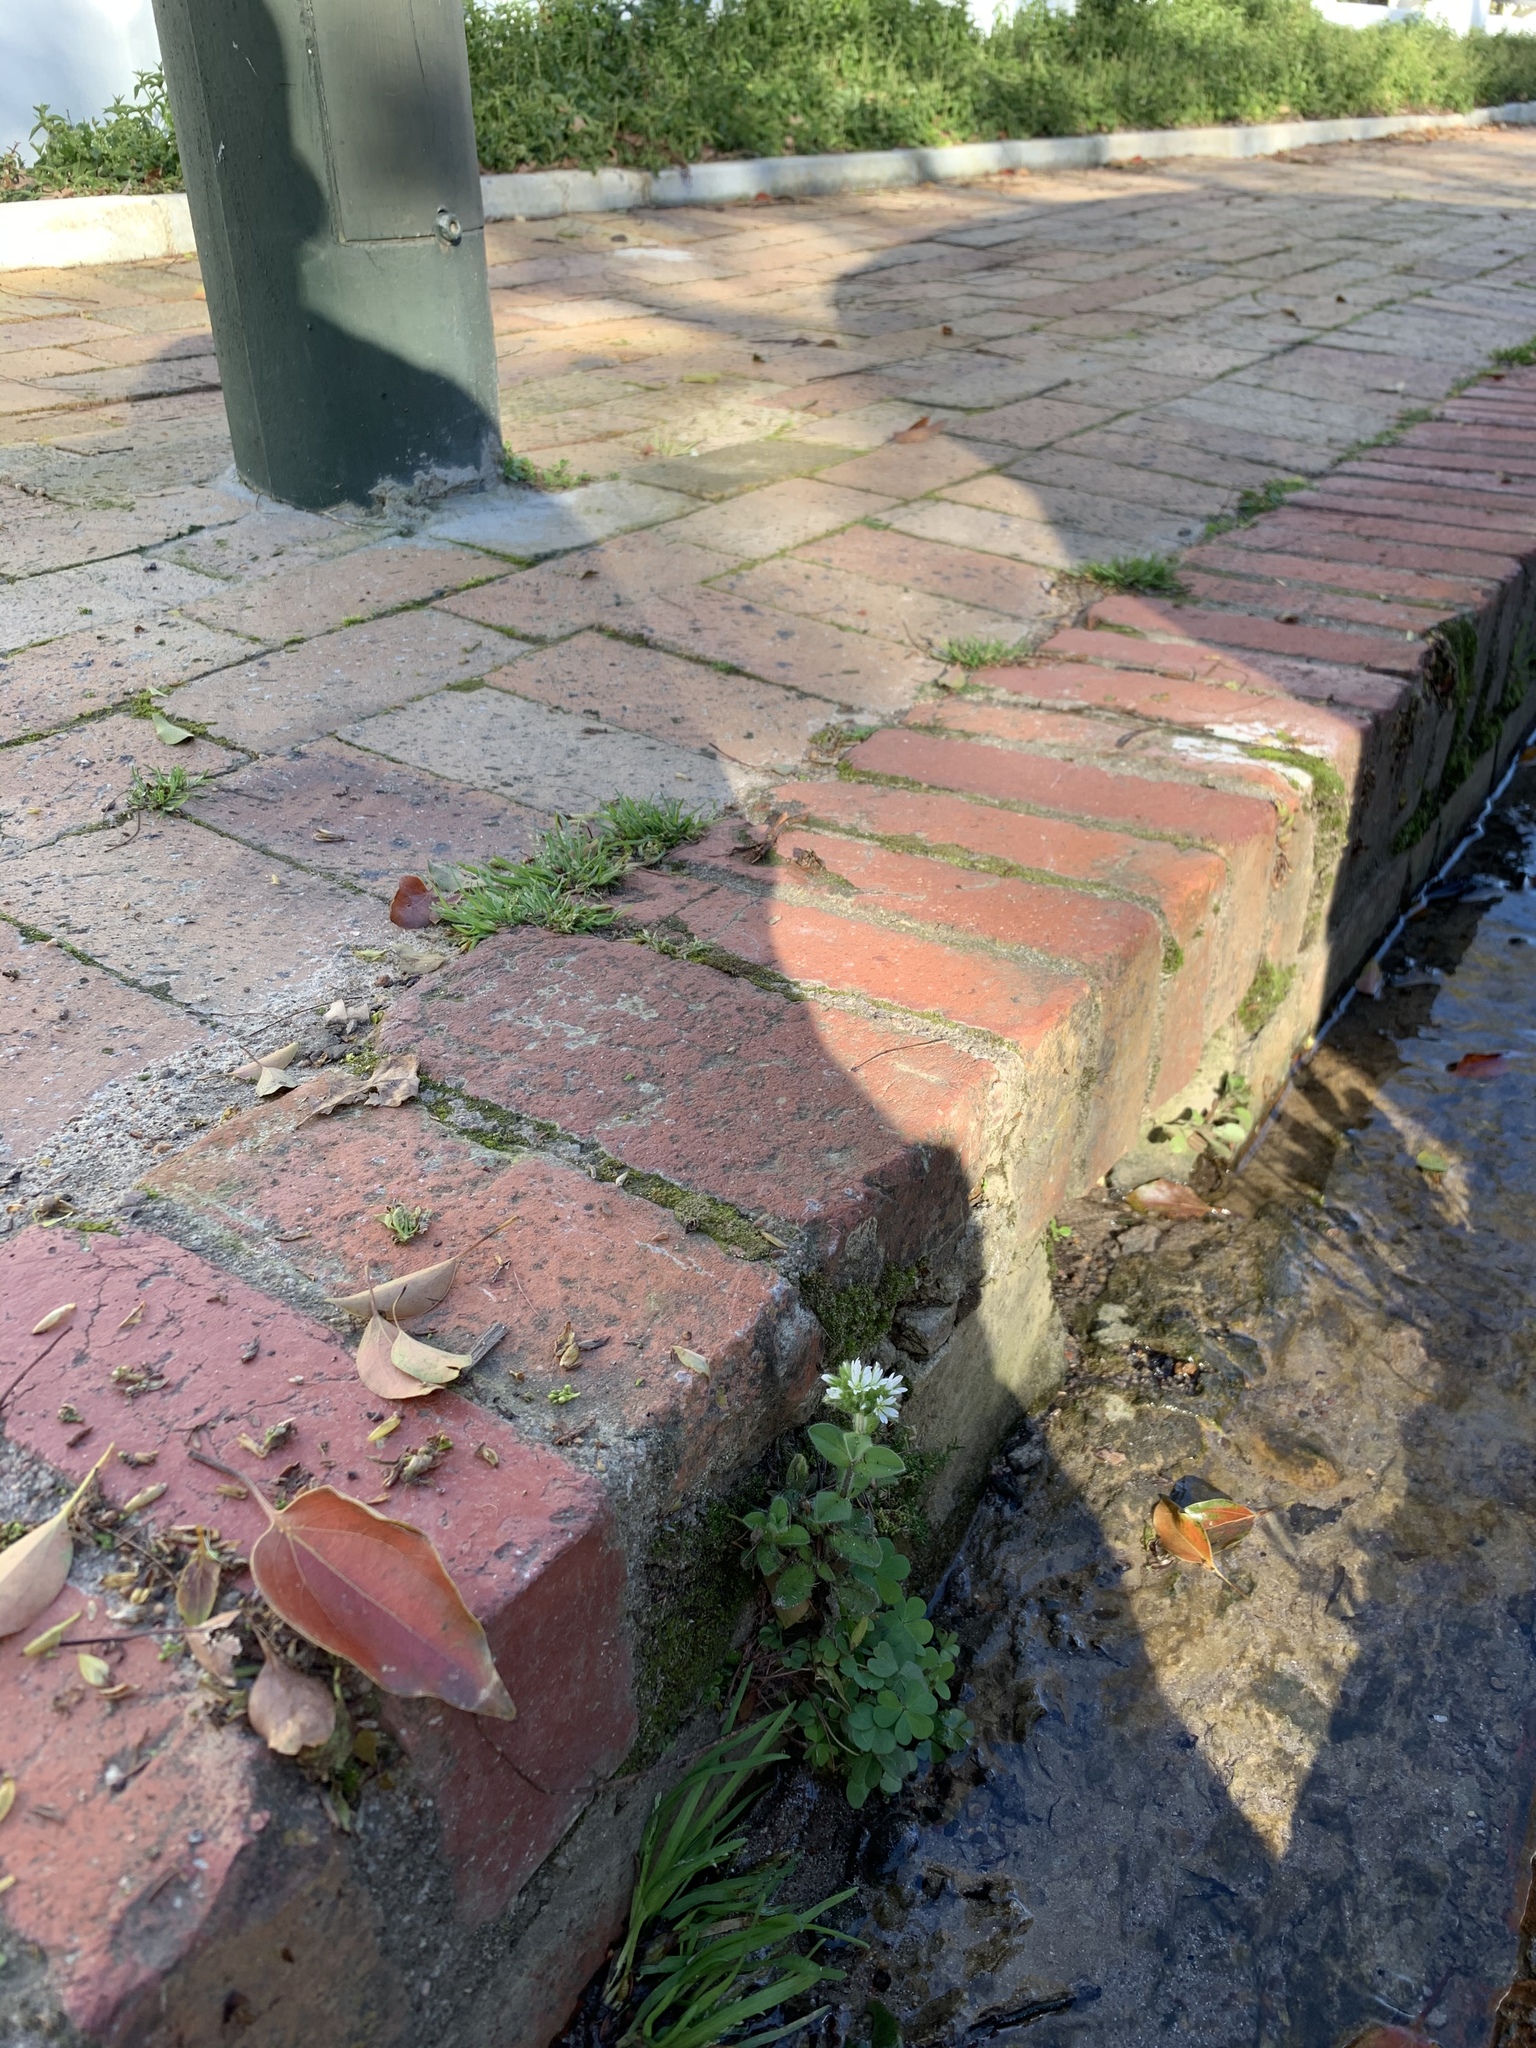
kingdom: Plantae
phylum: Tracheophyta
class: Magnoliopsida
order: Caryophyllales
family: Caryophyllaceae
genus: Cerastium
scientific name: Cerastium glomeratum
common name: Sticky chickweed
